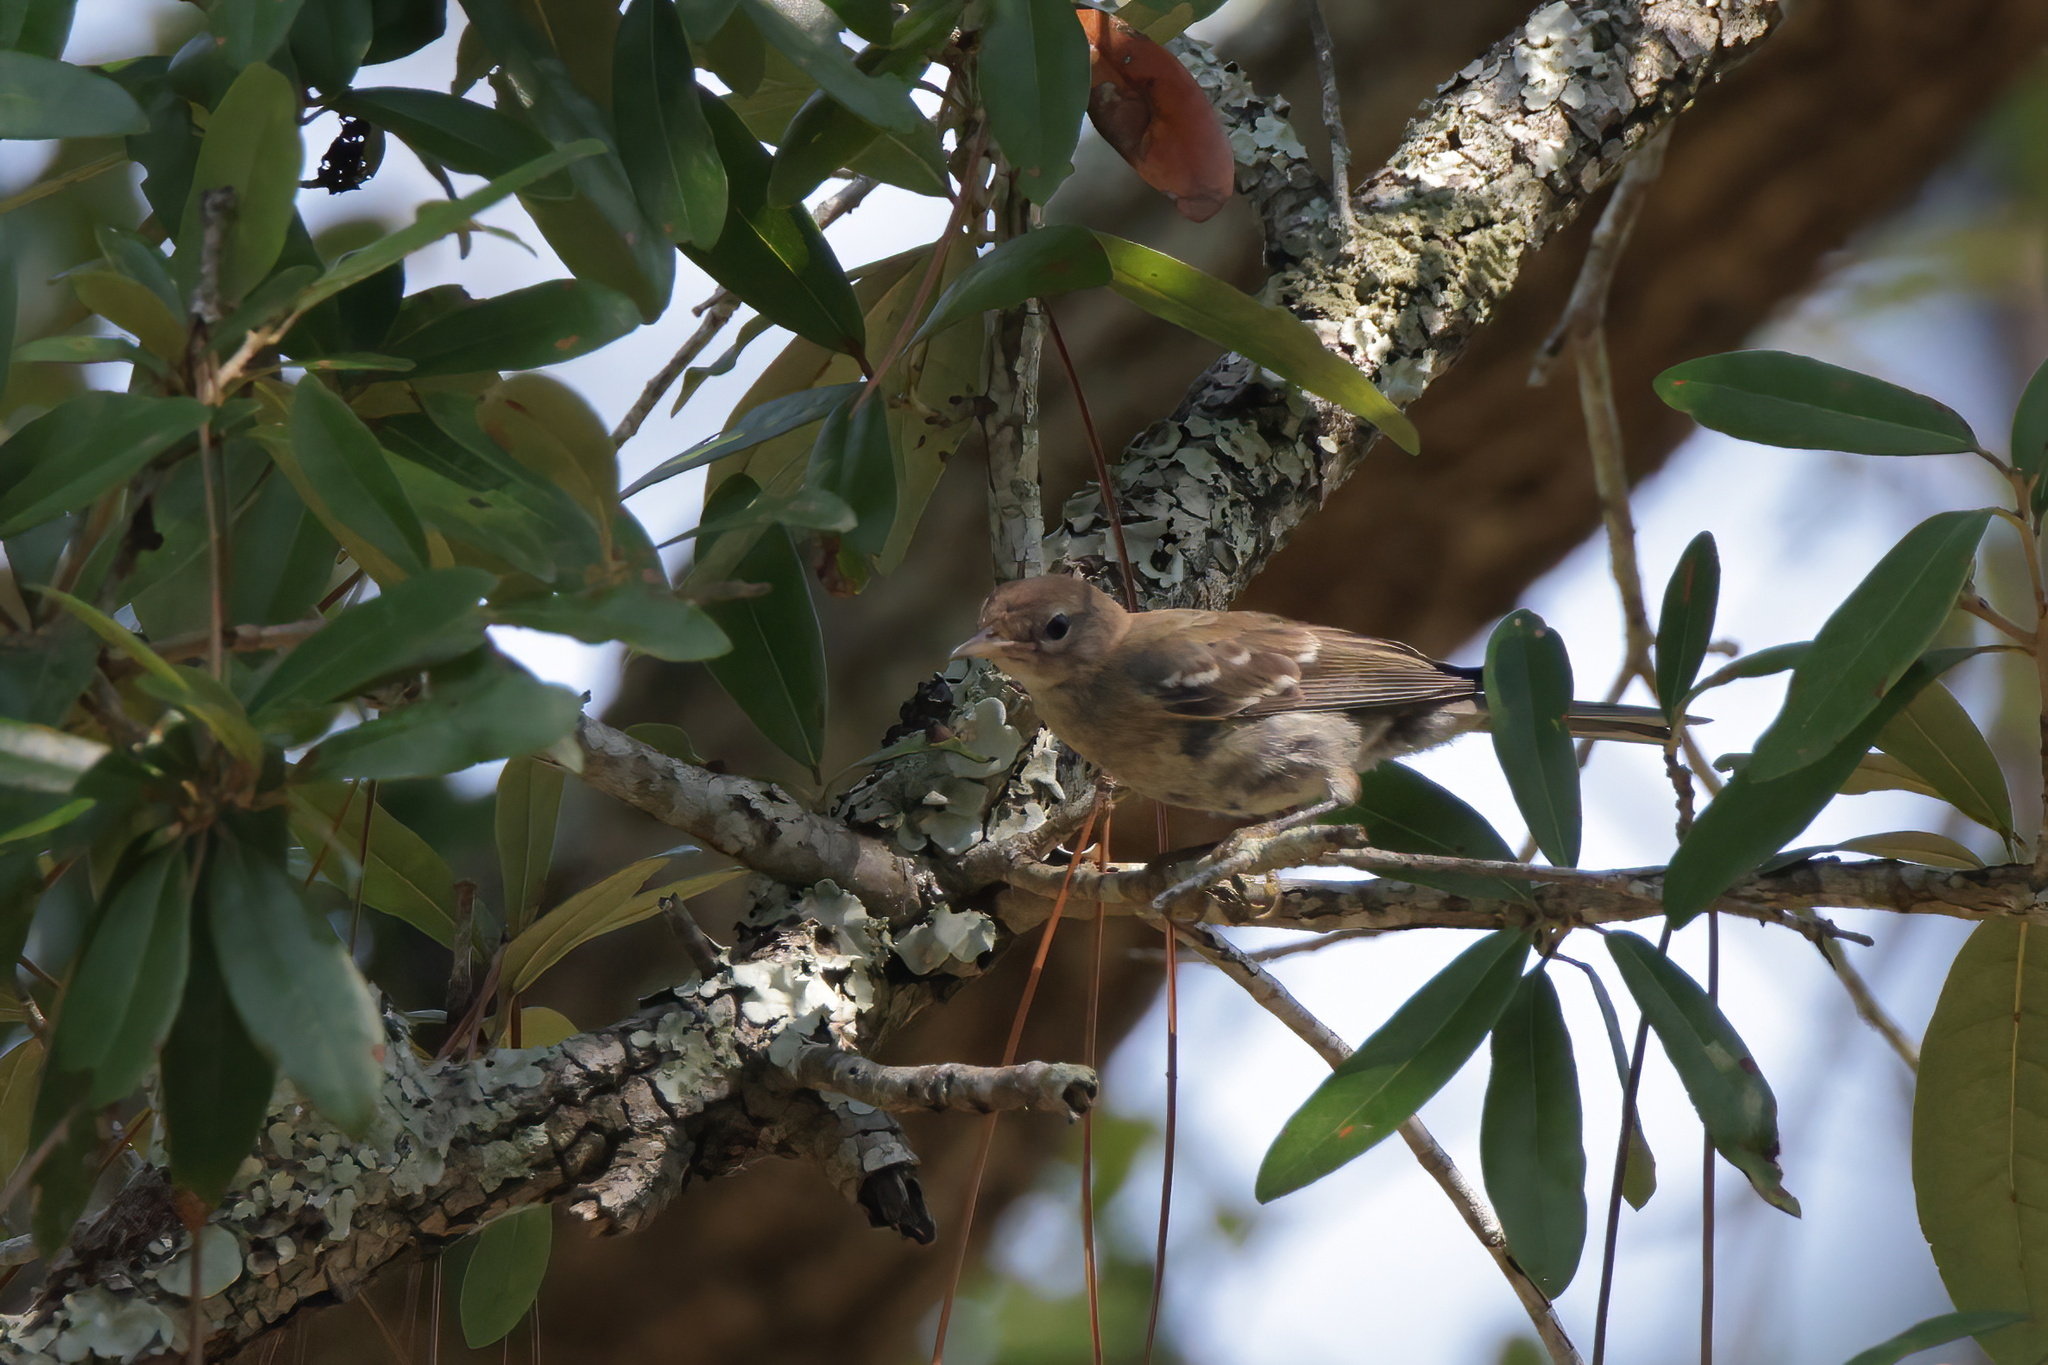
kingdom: Animalia
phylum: Chordata
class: Aves
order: Passeriformes
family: Parulidae
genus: Setophaga
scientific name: Setophaga pinus
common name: Pine warbler
